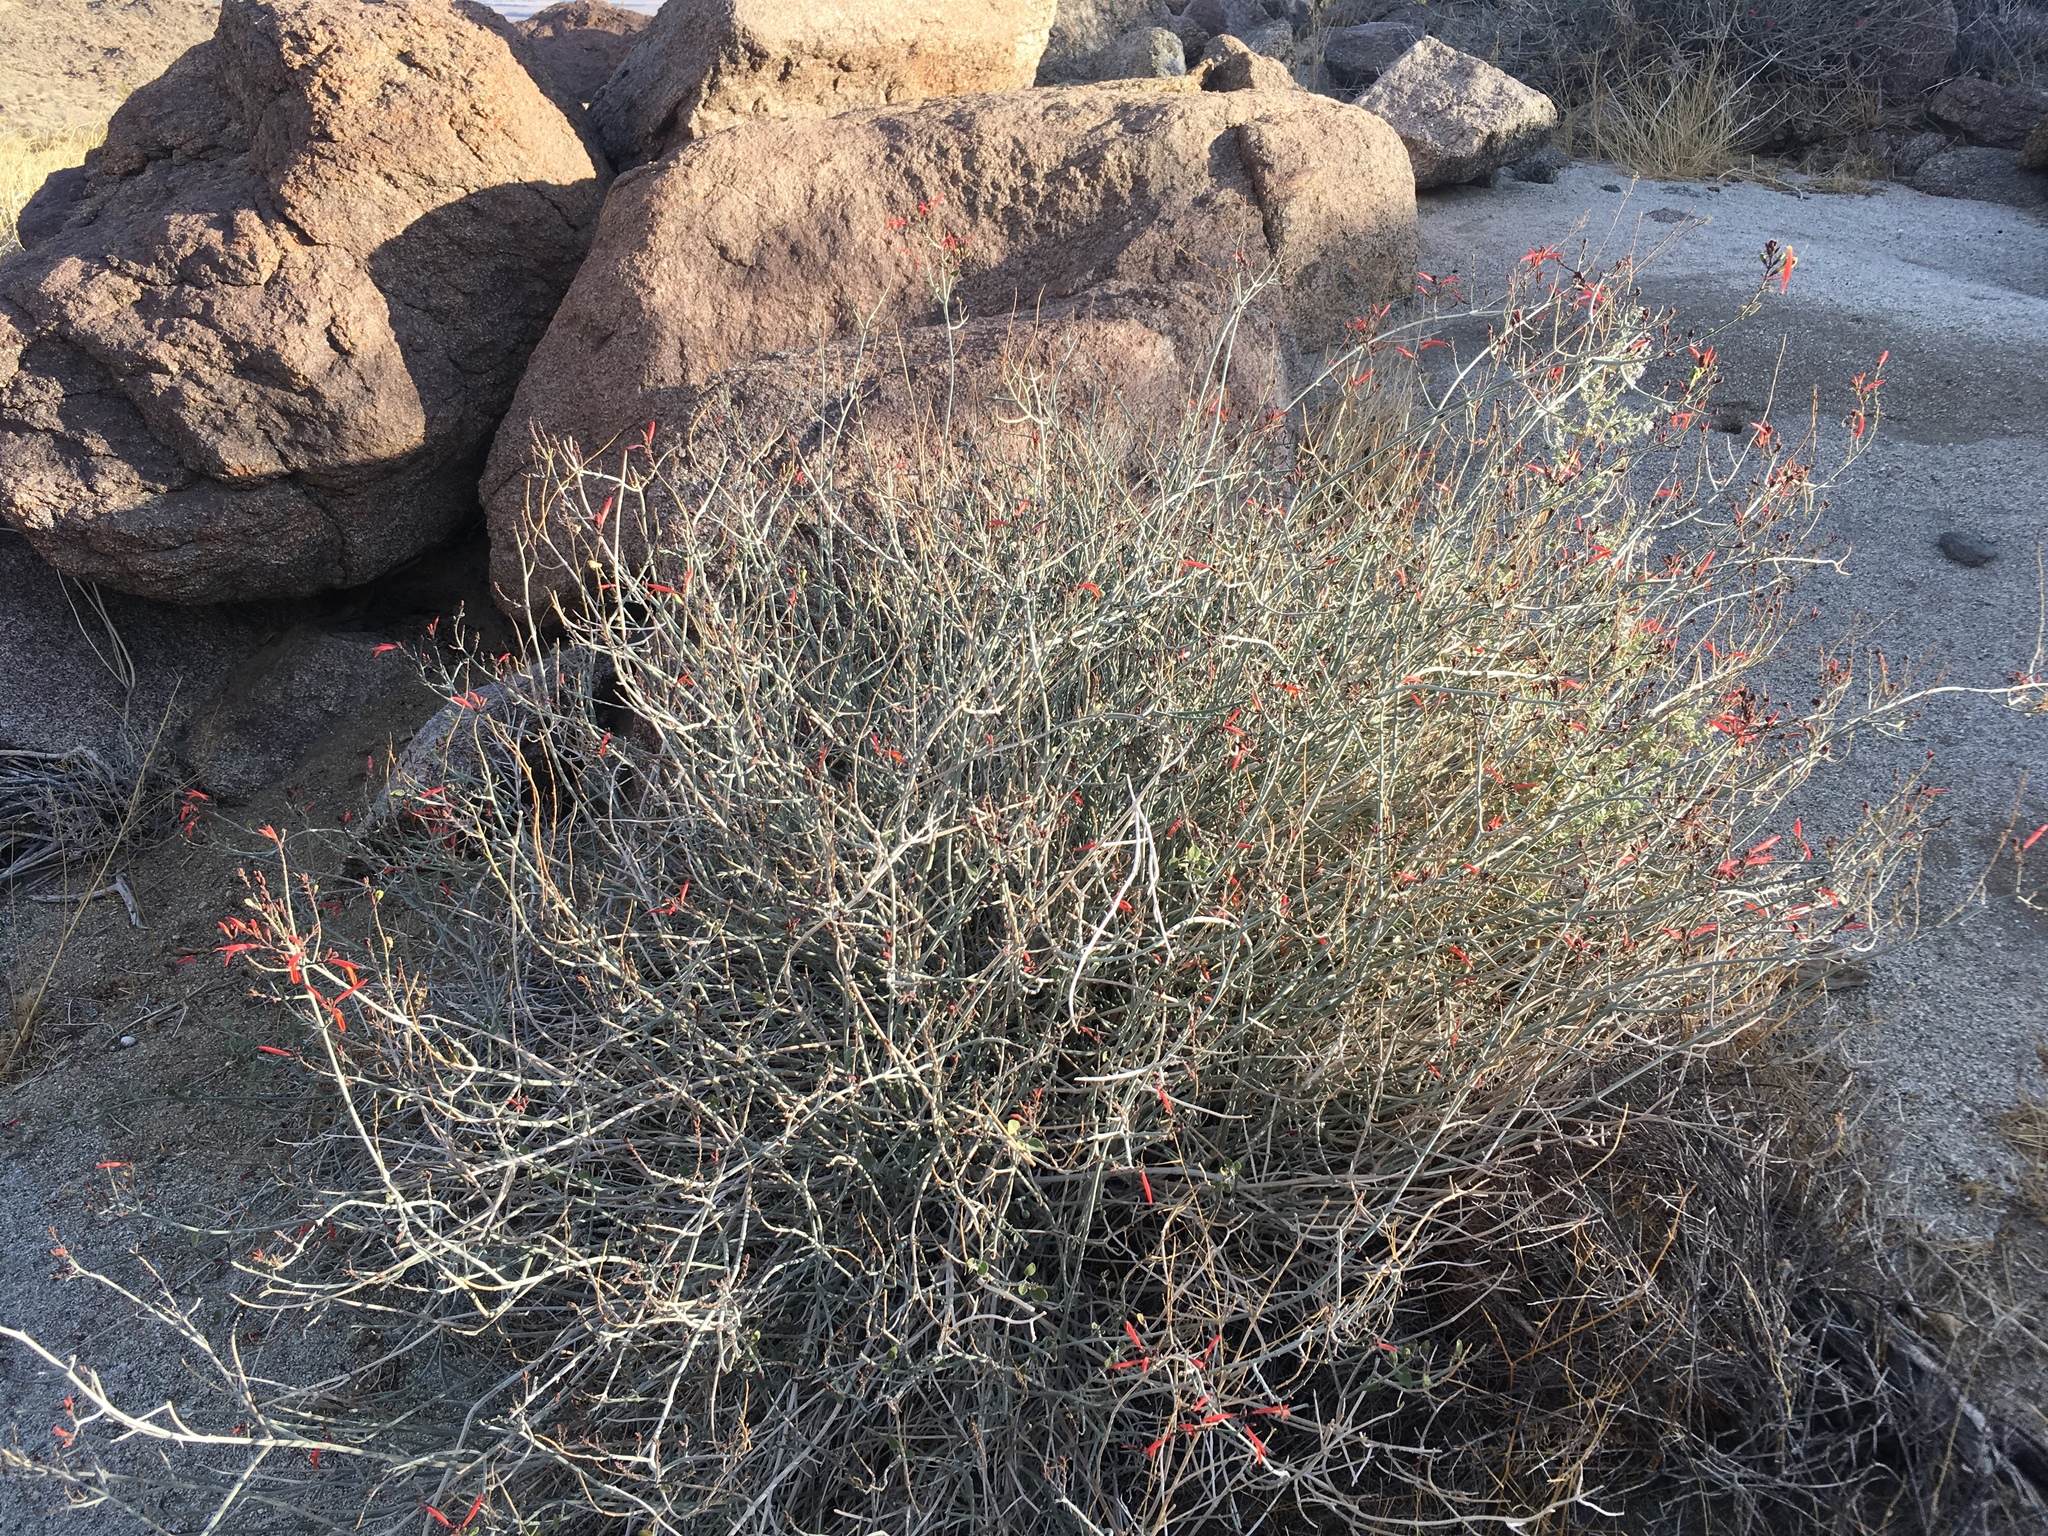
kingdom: Plantae
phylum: Tracheophyta
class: Magnoliopsida
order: Lamiales
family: Acanthaceae
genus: Justicia
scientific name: Justicia californica
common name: Chuparosa-honeysuckle
